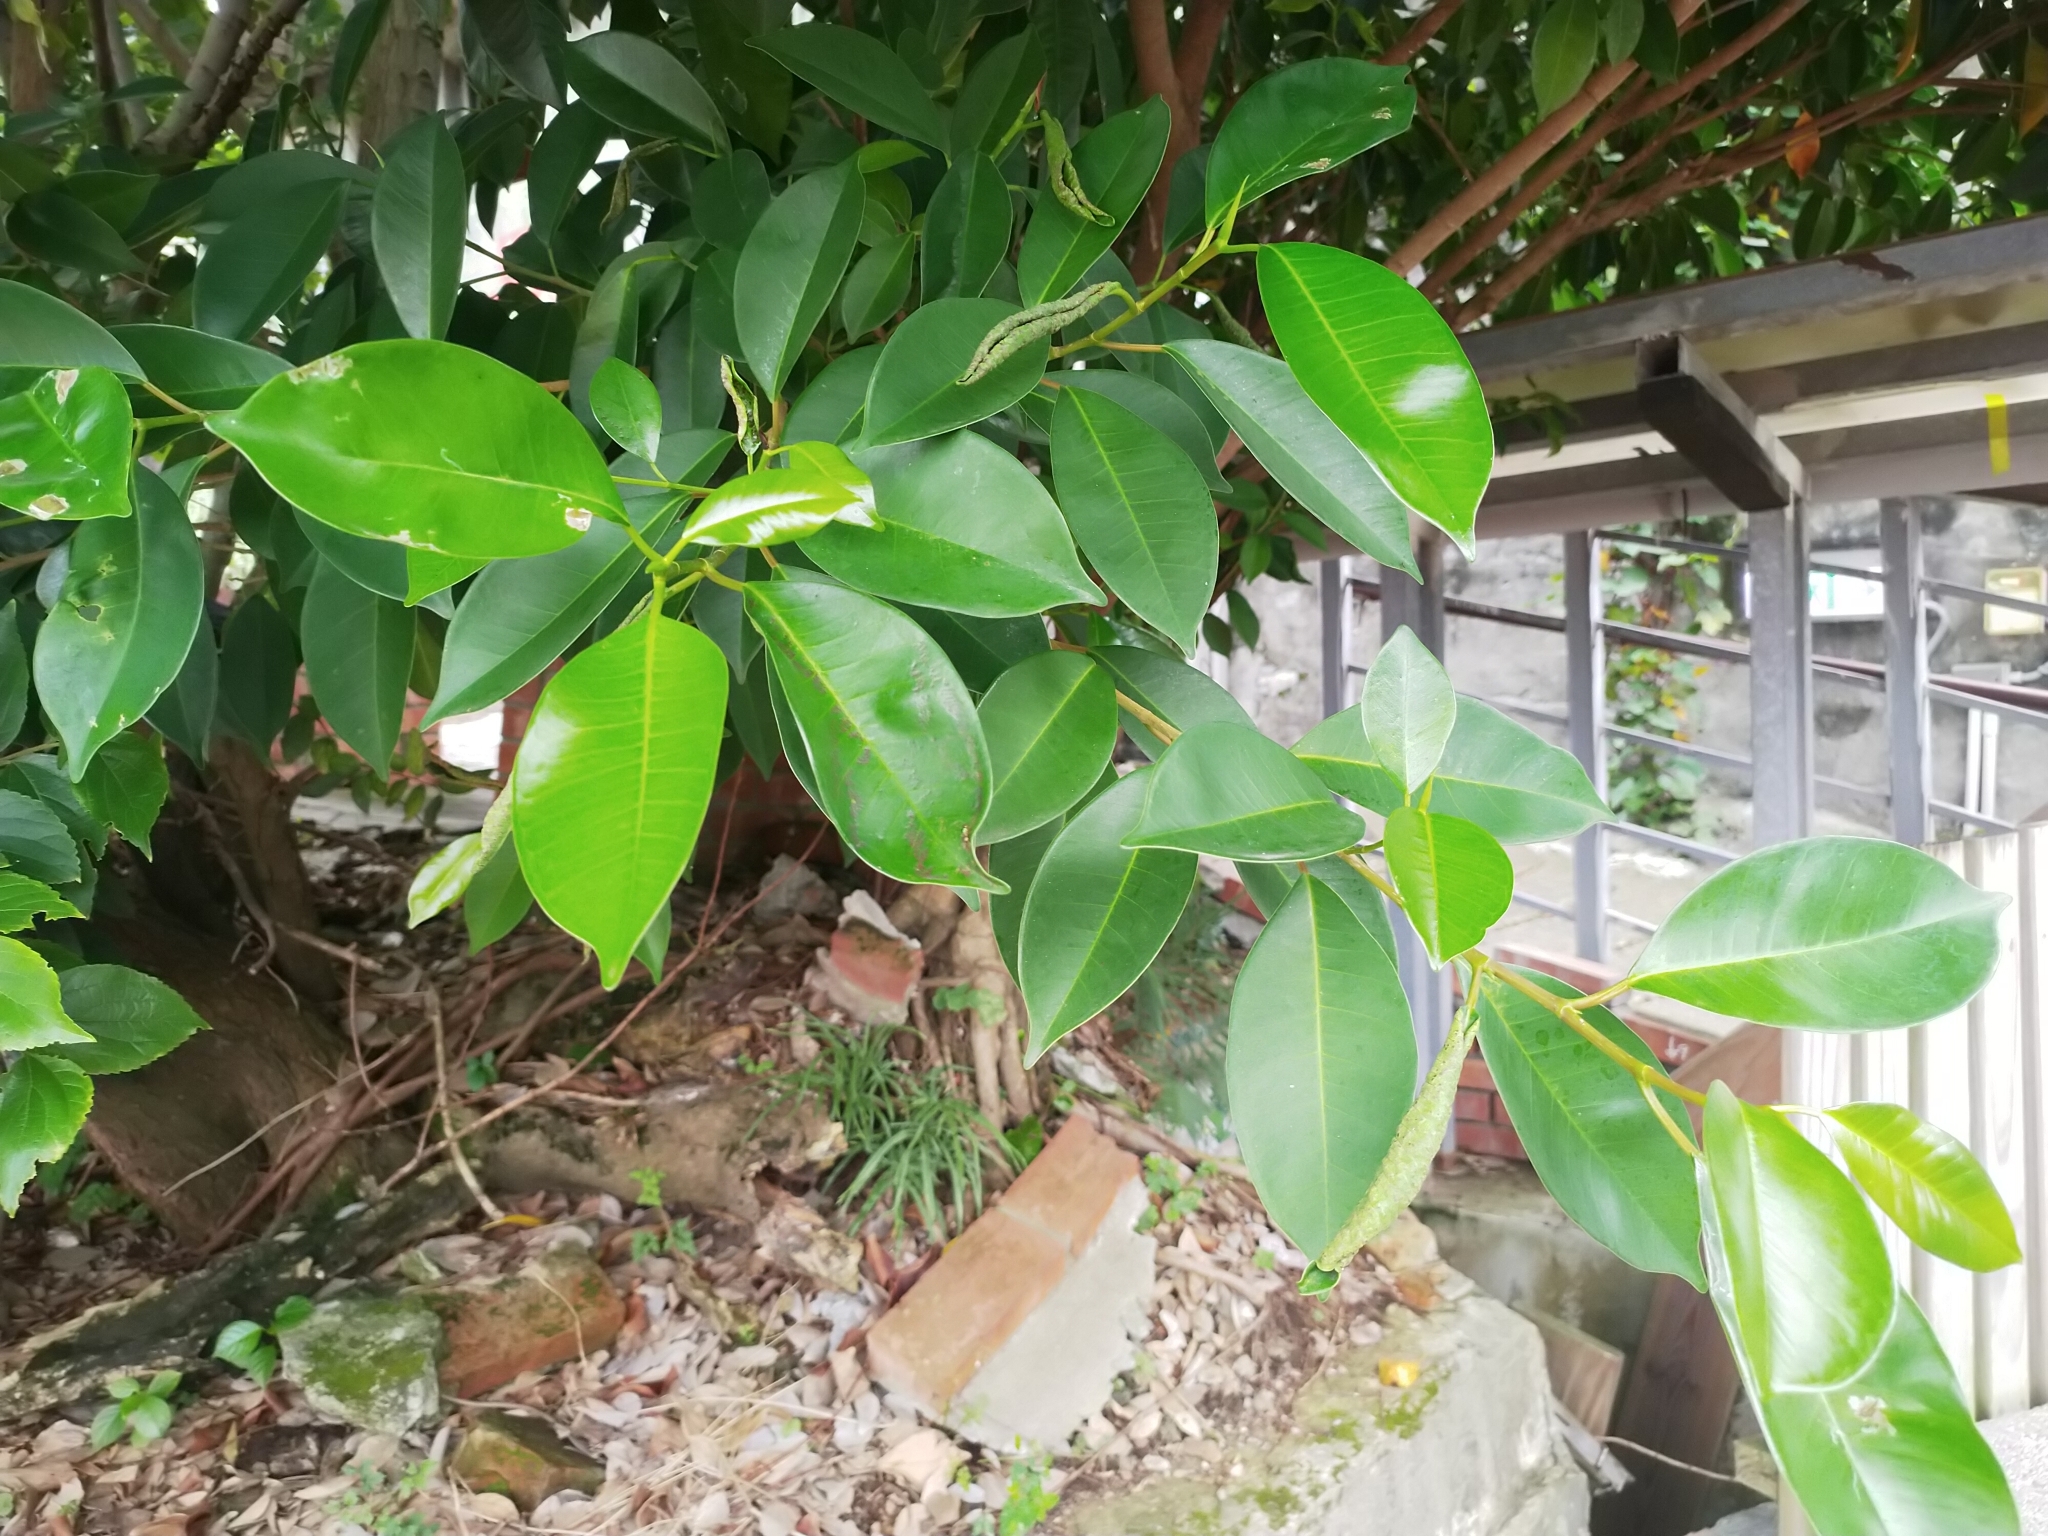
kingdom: Plantae
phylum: Tracheophyta
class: Magnoliopsida
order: Rosales
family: Moraceae
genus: Ficus
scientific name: Ficus microcarpa
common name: Chinese banyan
